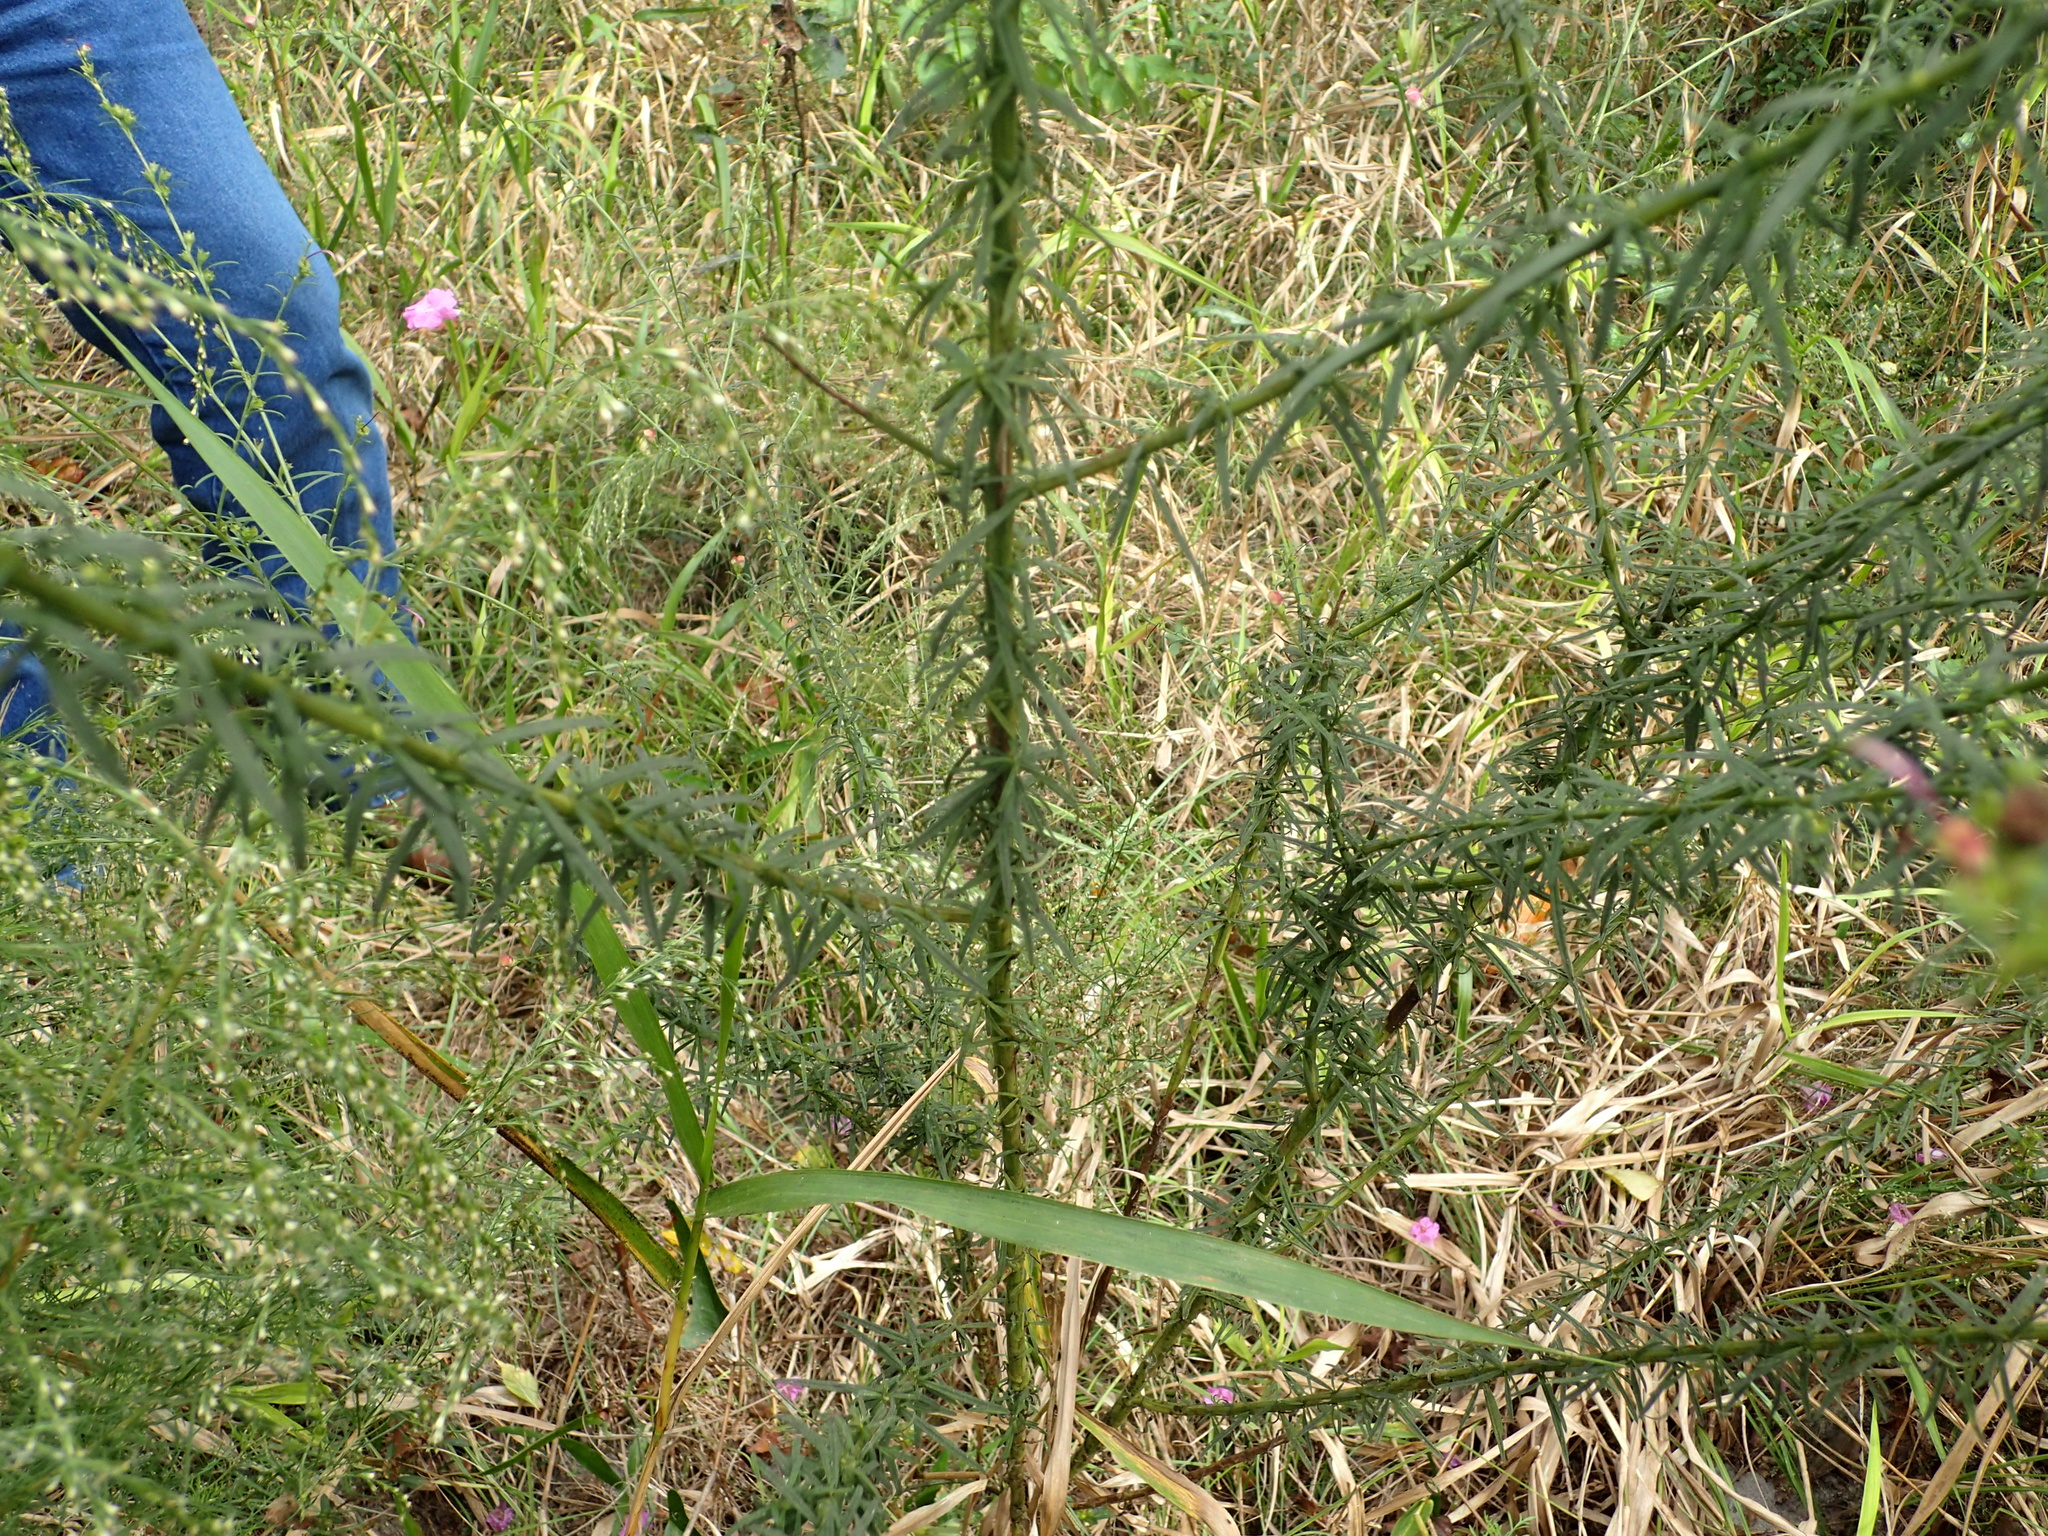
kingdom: Plantae
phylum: Tracheophyta
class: Magnoliopsida
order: Lamiales
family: Orobanchaceae
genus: Agalinis
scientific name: Agalinis fasciculata
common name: Beach false foxglove
